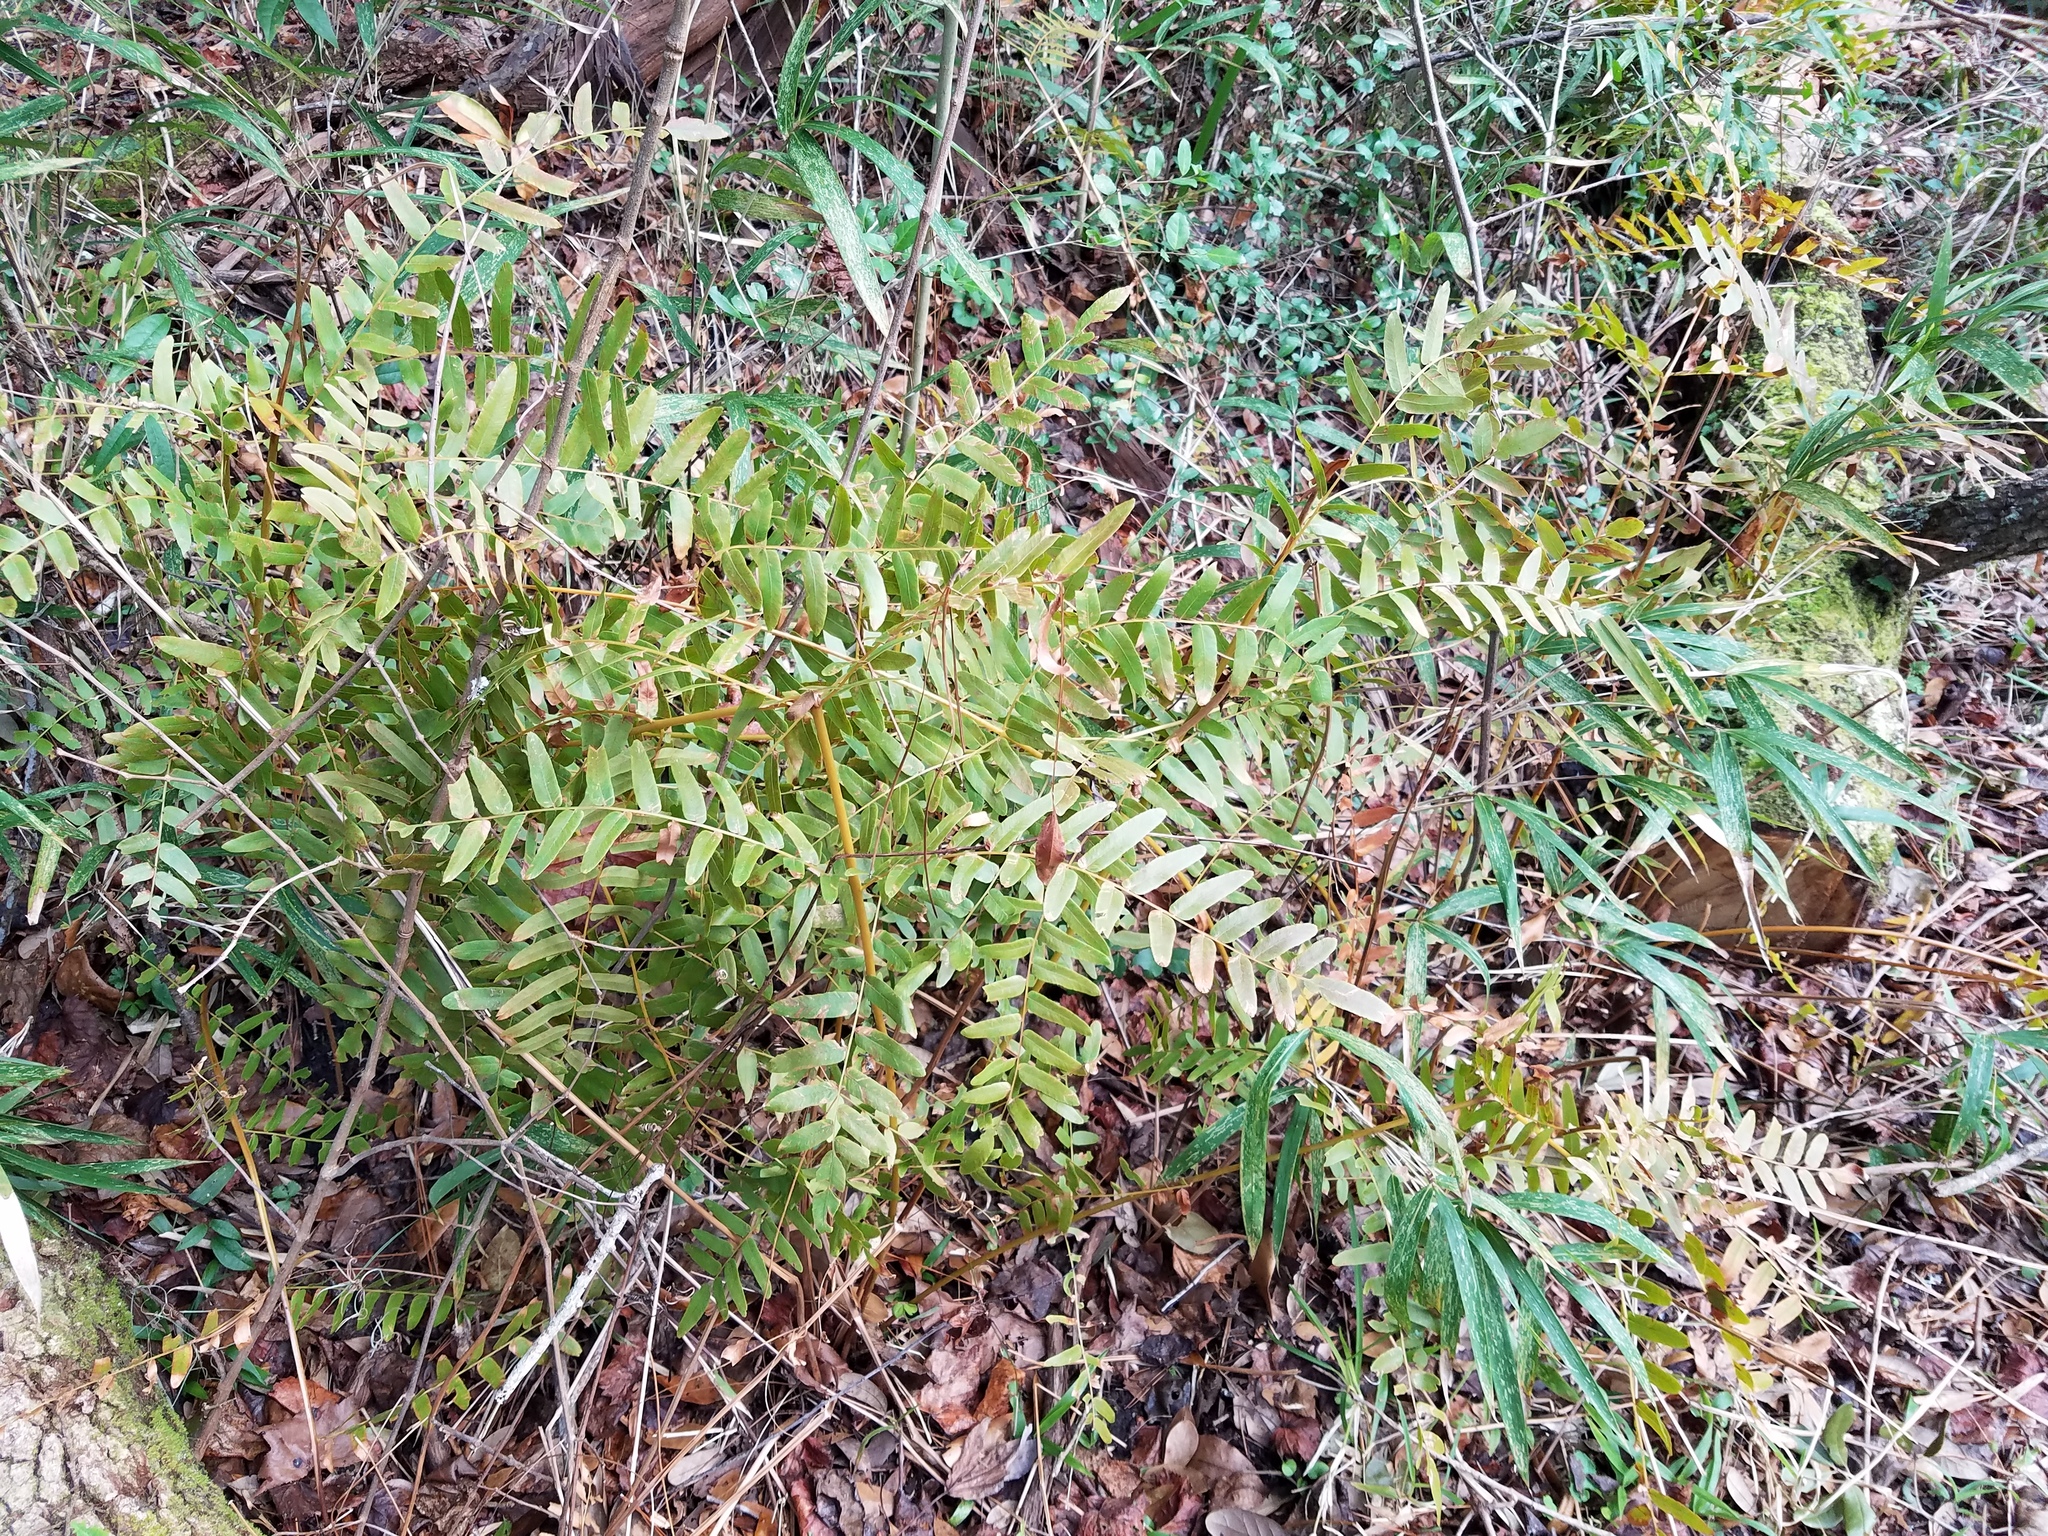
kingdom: Plantae
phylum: Tracheophyta
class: Polypodiopsida
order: Osmundales
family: Osmundaceae
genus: Osmunda
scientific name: Osmunda spectabilis
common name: American royal fern
